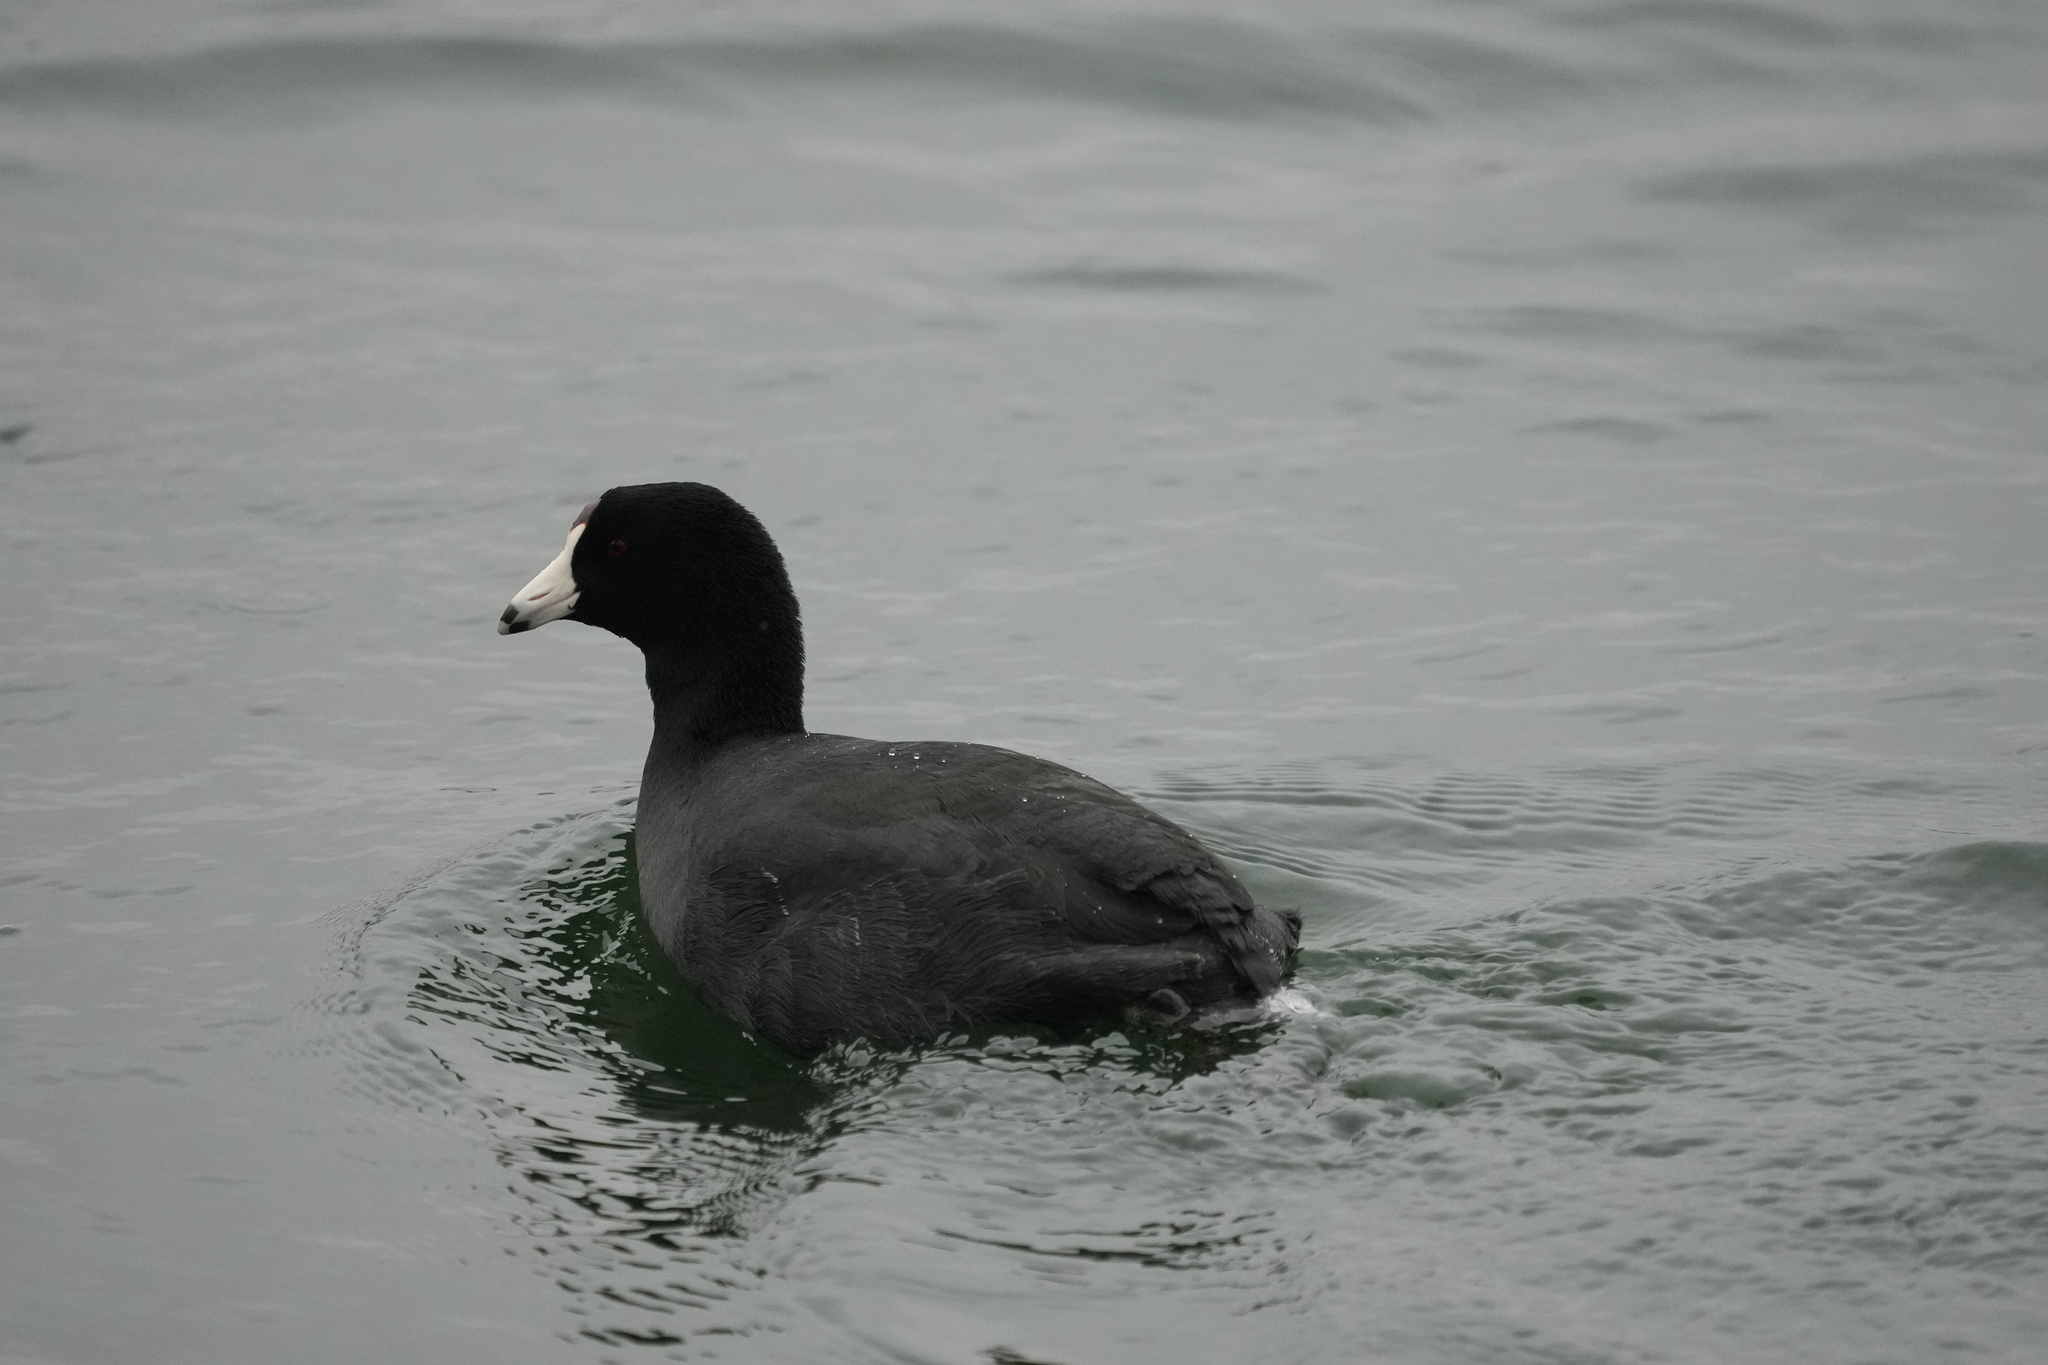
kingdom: Animalia
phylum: Chordata
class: Aves
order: Gruiformes
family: Rallidae
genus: Fulica
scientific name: Fulica americana
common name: American coot
